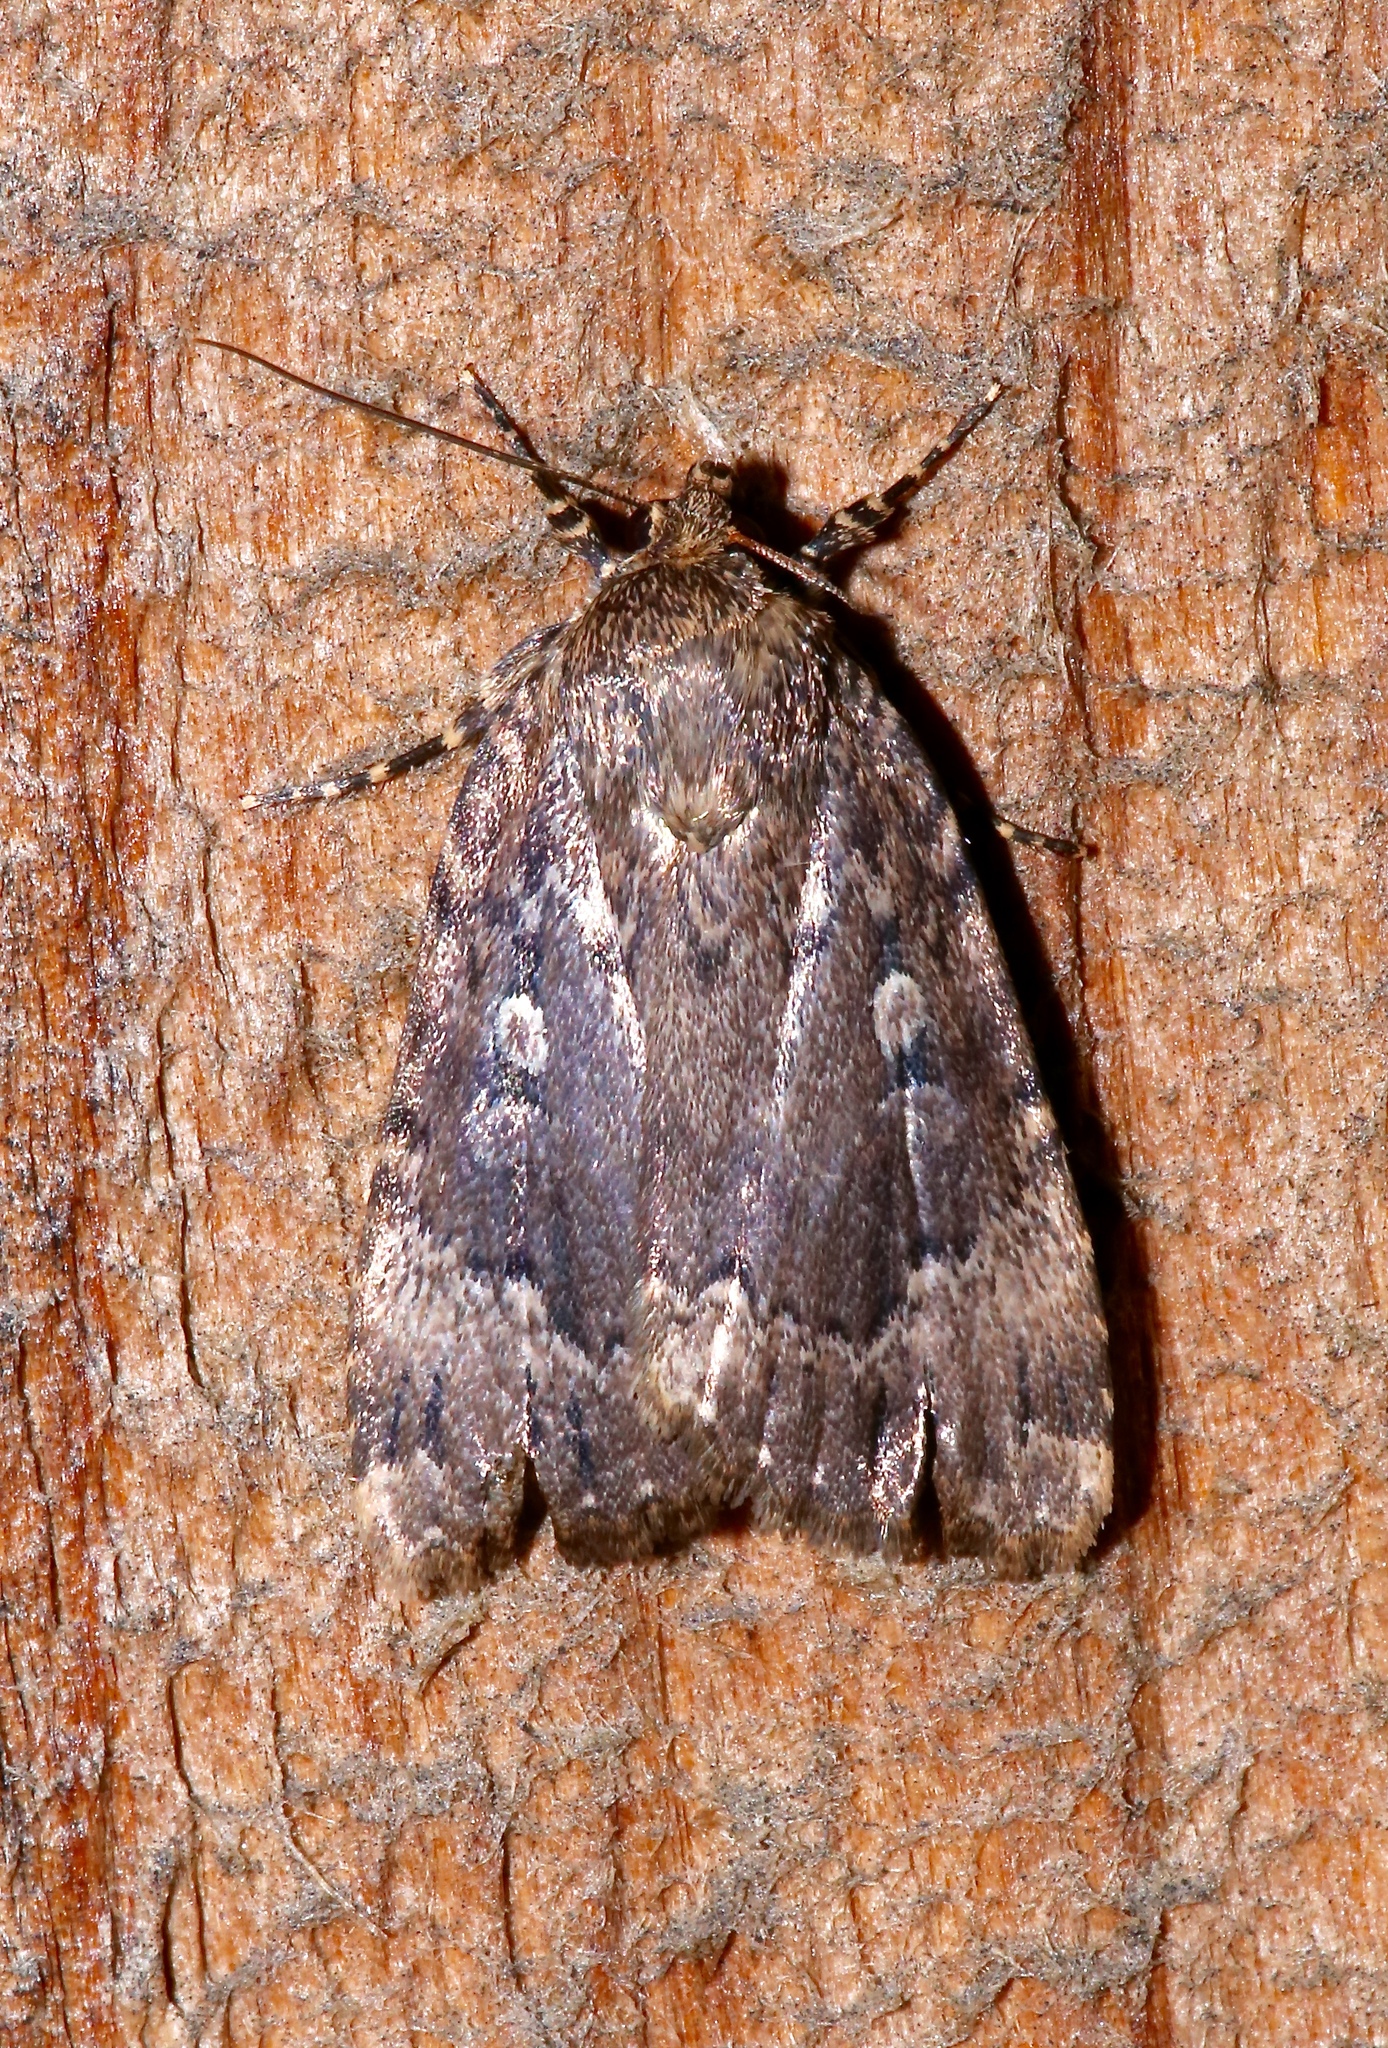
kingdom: Animalia
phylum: Arthropoda
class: Insecta
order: Lepidoptera
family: Noctuidae
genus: Amphipyra
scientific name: Amphipyra pyramidoides
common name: American copper underwing
